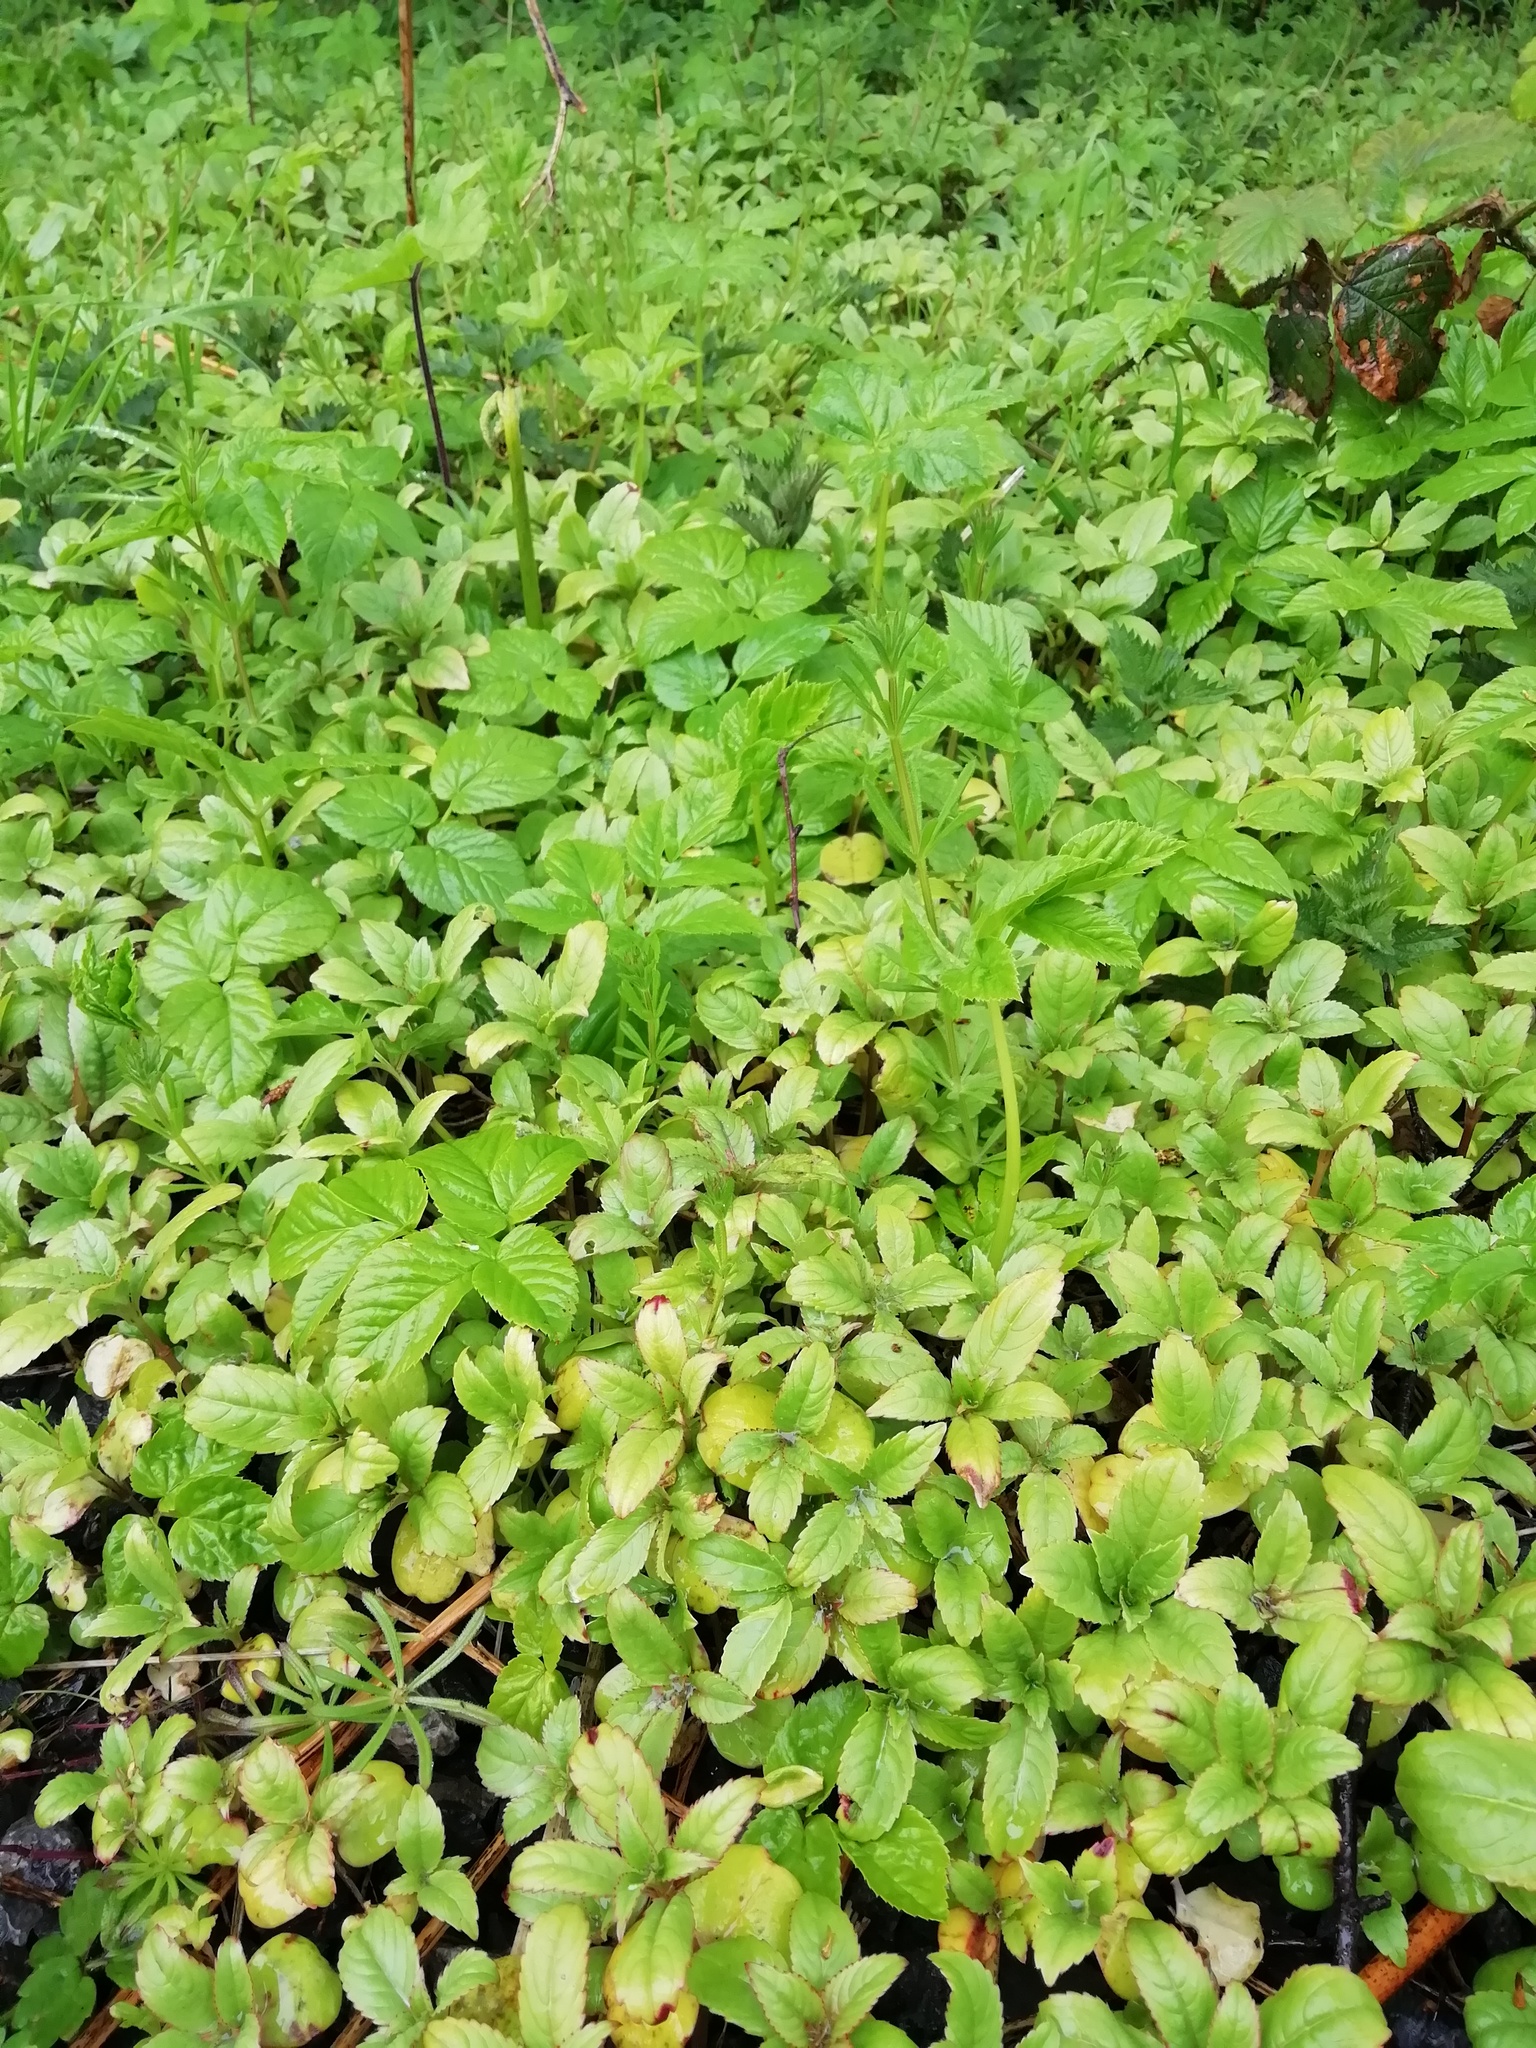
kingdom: Plantae
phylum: Tracheophyta
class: Magnoliopsida
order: Ericales
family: Balsaminaceae
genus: Impatiens
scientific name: Impatiens glandulifera
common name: Himalayan balsam
